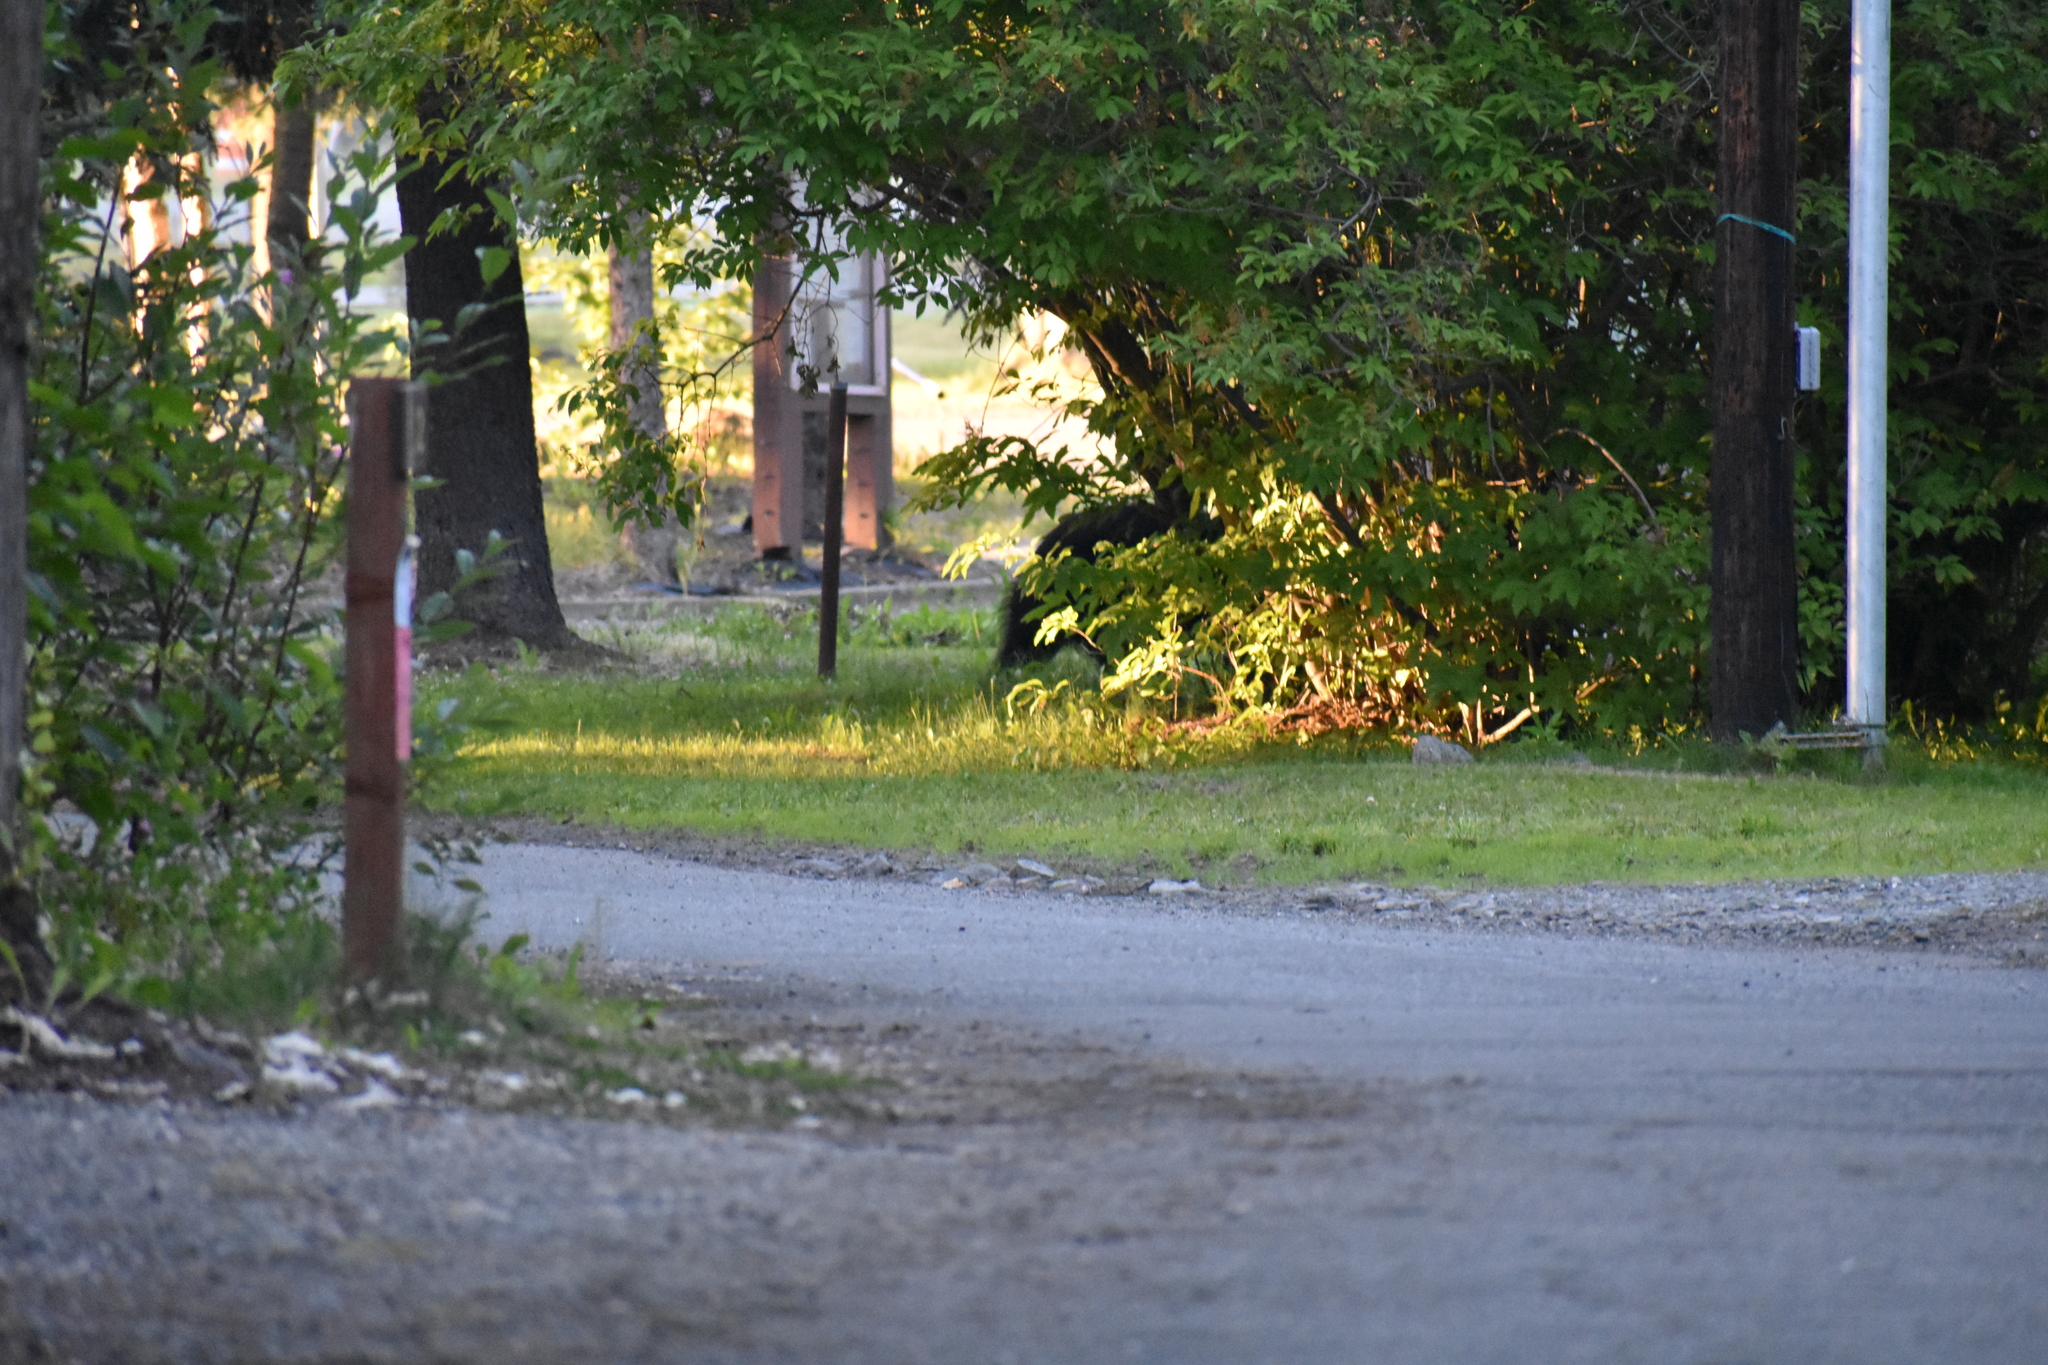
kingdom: Animalia
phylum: Chordata
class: Mammalia
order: Carnivora
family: Ursidae
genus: Ursus
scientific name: Ursus americanus
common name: American black bear
